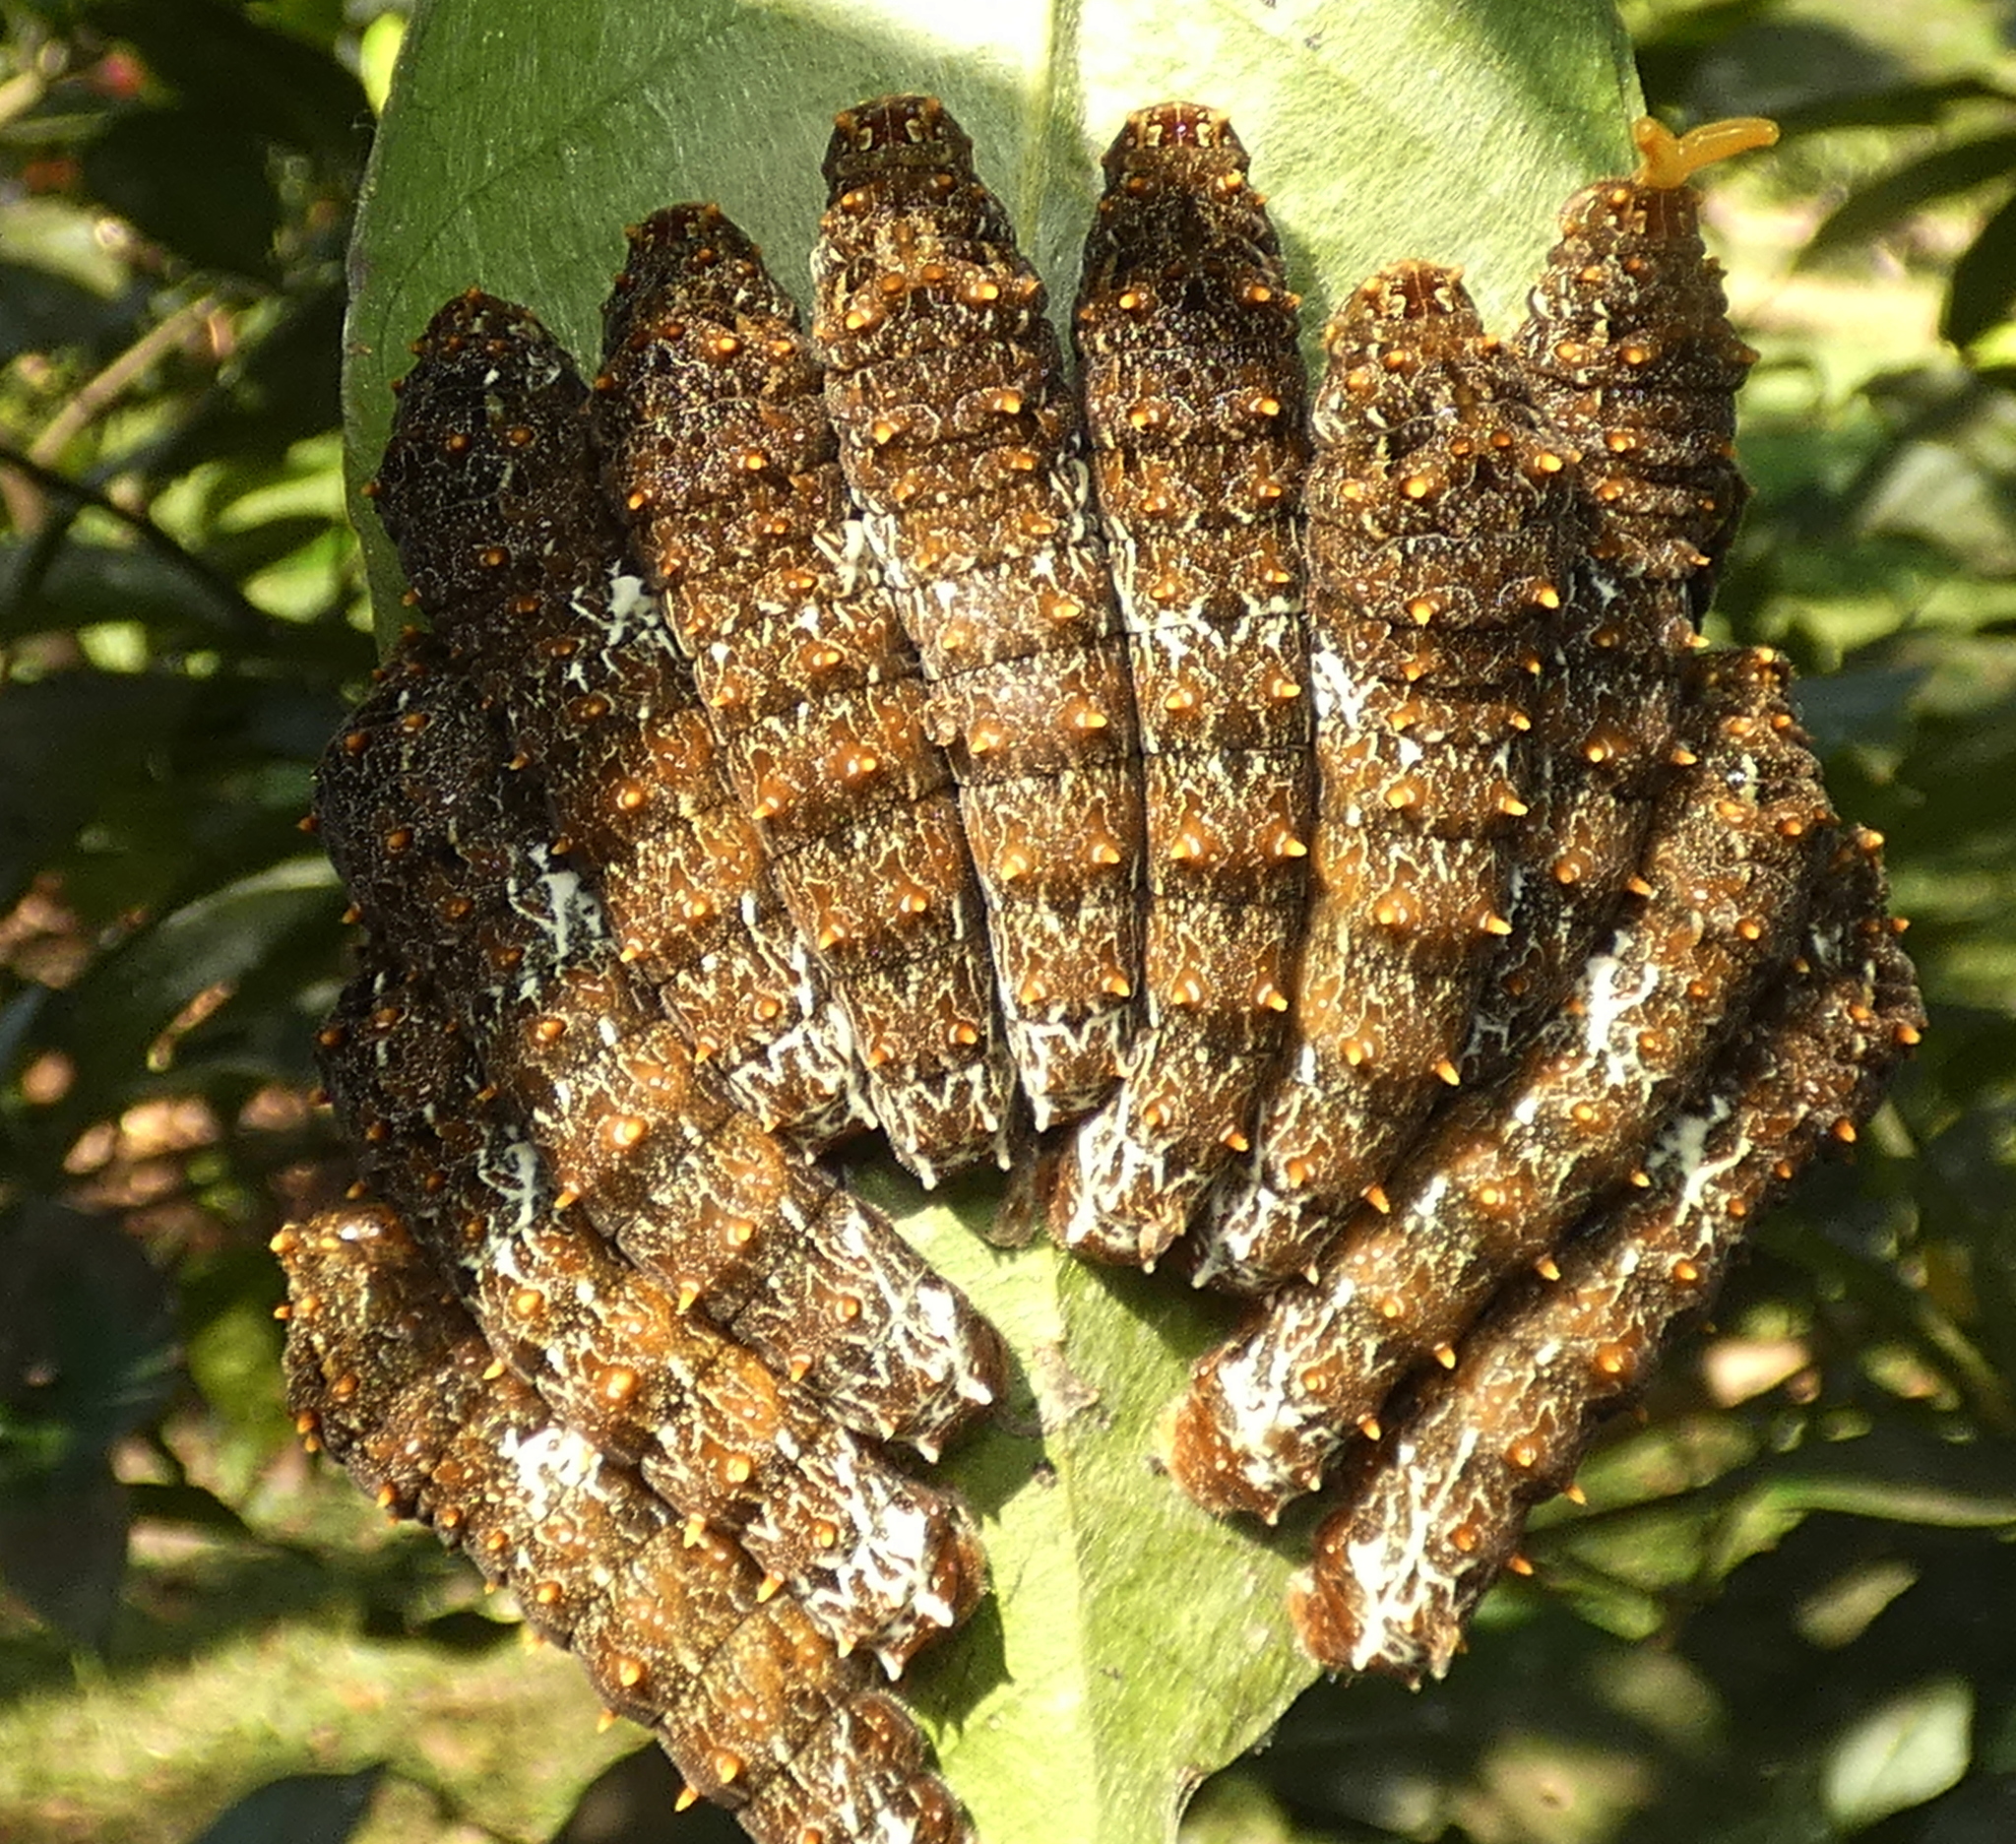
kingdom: Animalia
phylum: Arthropoda
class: Insecta
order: Lepidoptera
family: Papilionidae
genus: Papilio
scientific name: Papilio anchisiades
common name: Idaes swallowtail
